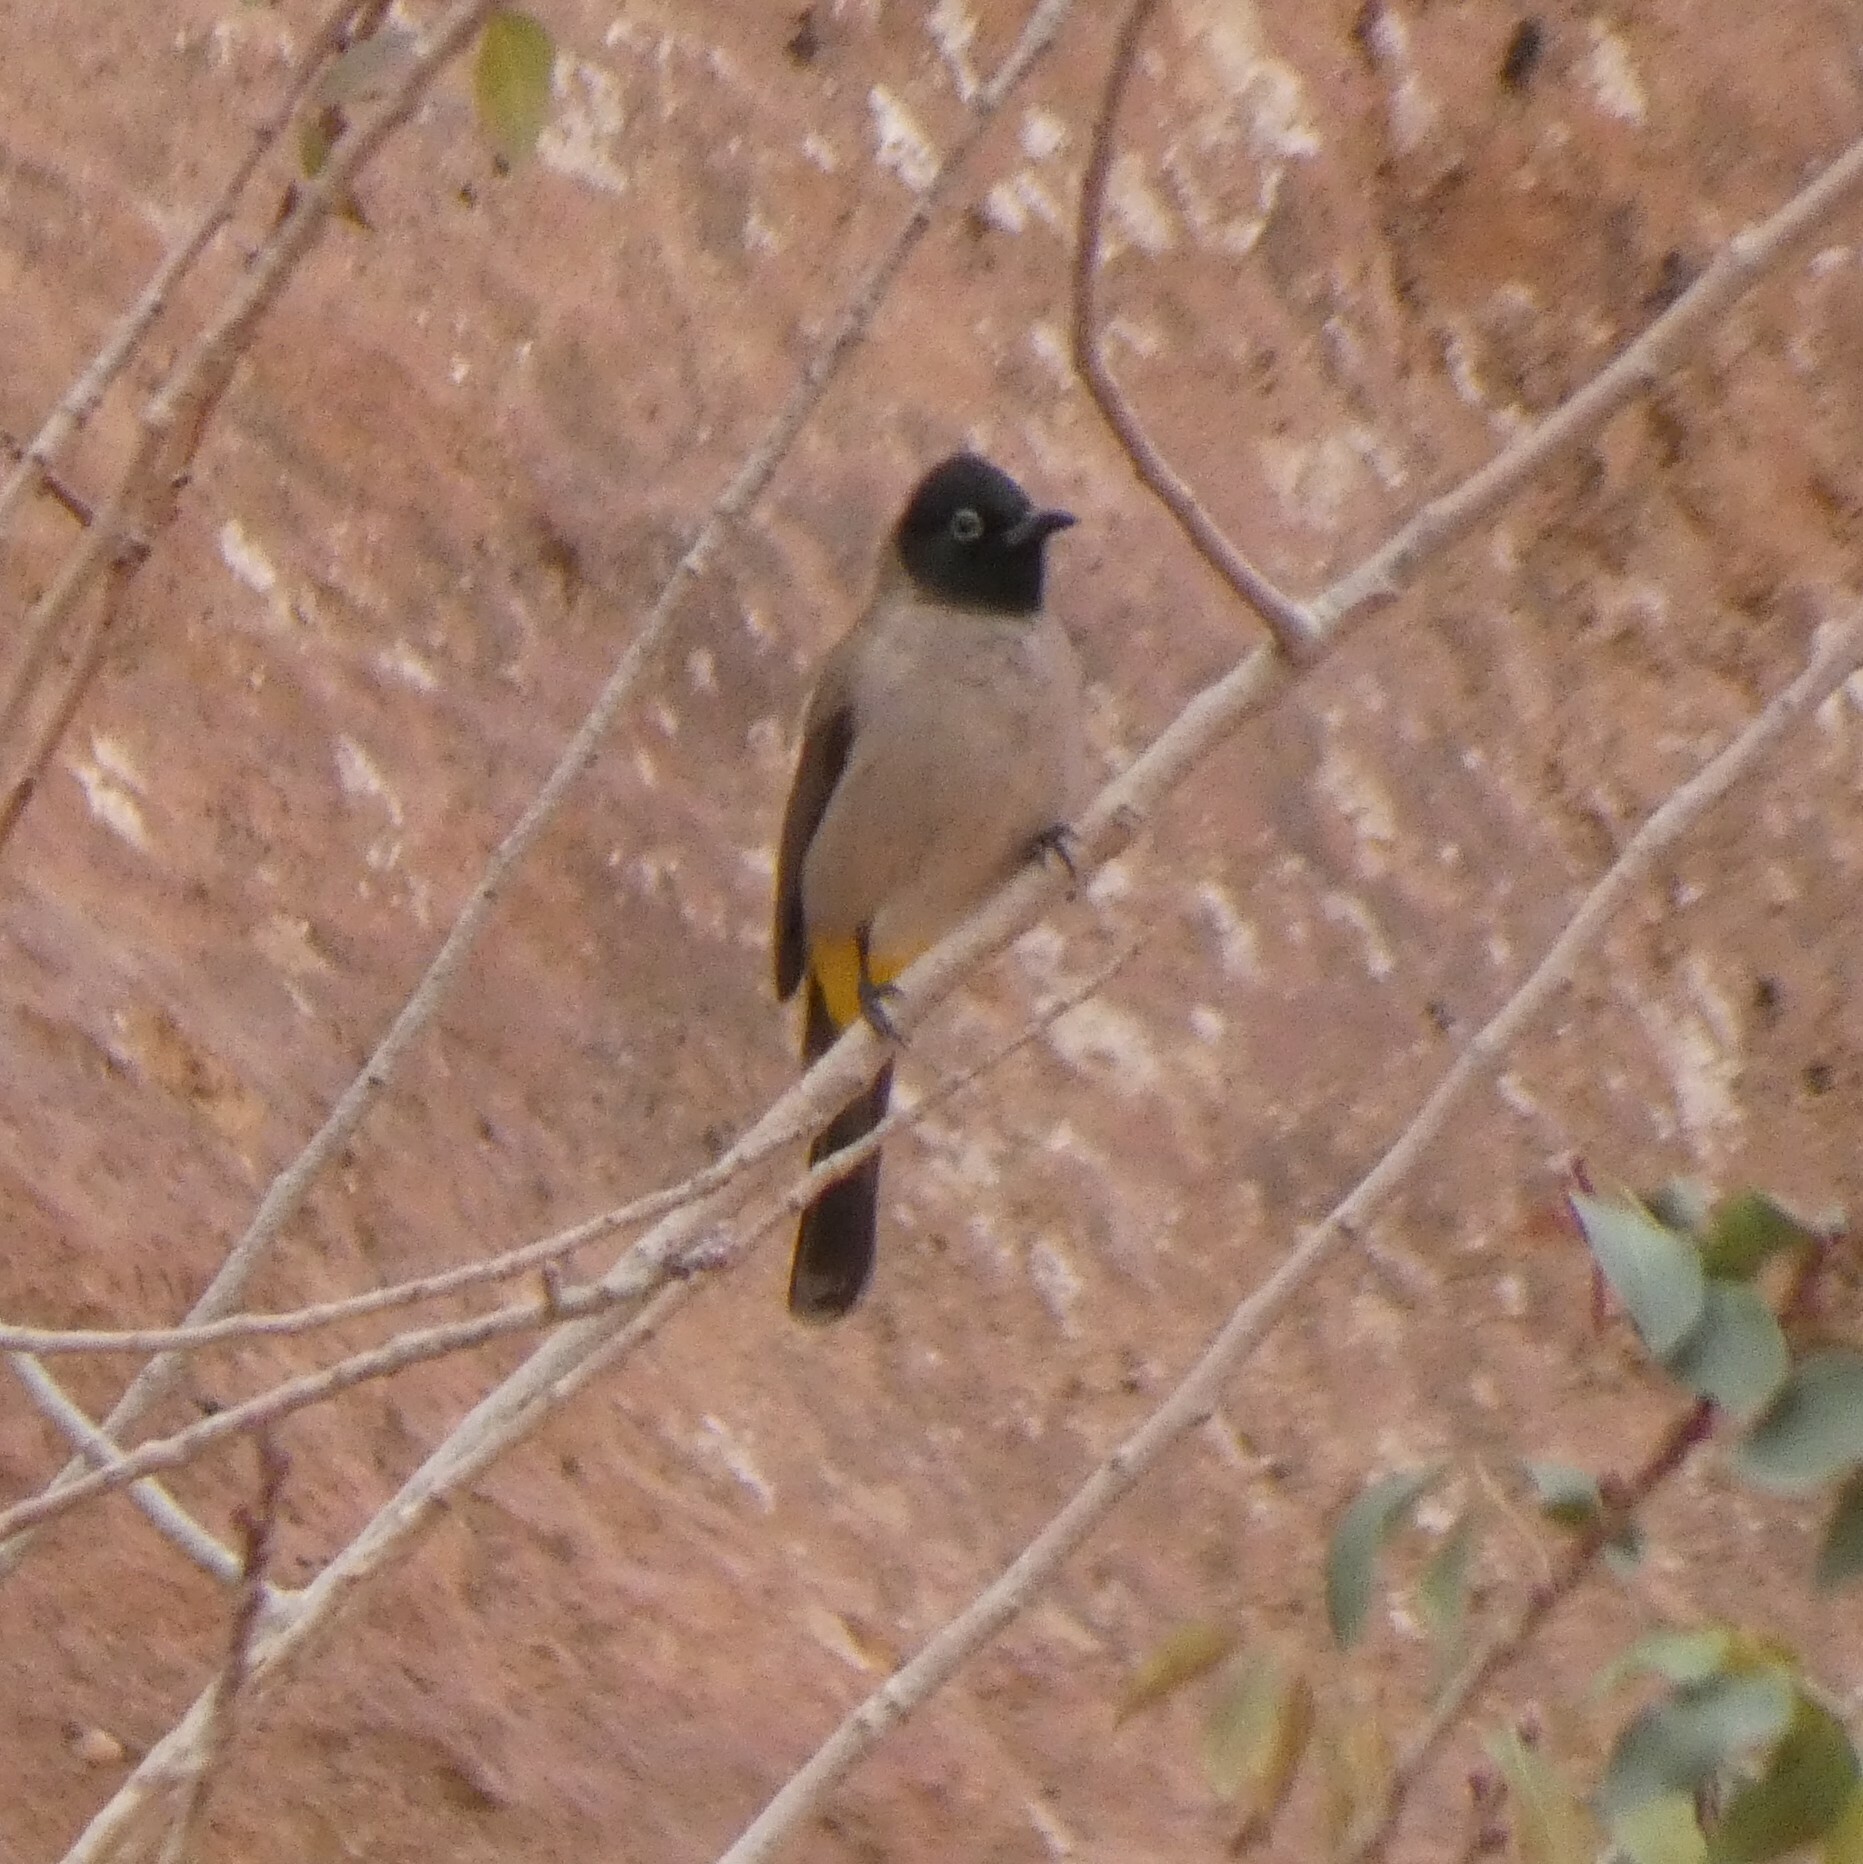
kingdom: Animalia
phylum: Chordata
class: Aves
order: Passeriformes
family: Pycnonotidae
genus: Pycnonotus
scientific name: Pycnonotus xanthopygos
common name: White-spectacled bulbul
